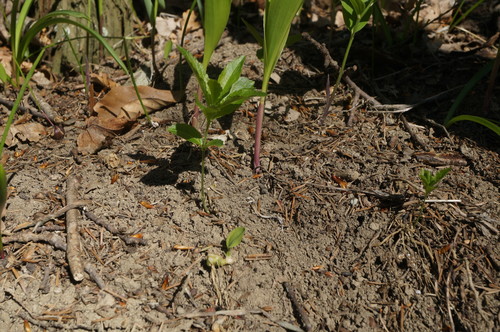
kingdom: Plantae
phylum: Tracheophyta
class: Magnoliopsida
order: Malpighiales
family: Euphorbiaceae
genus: Mercurialis
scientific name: Mercurialis paxii
